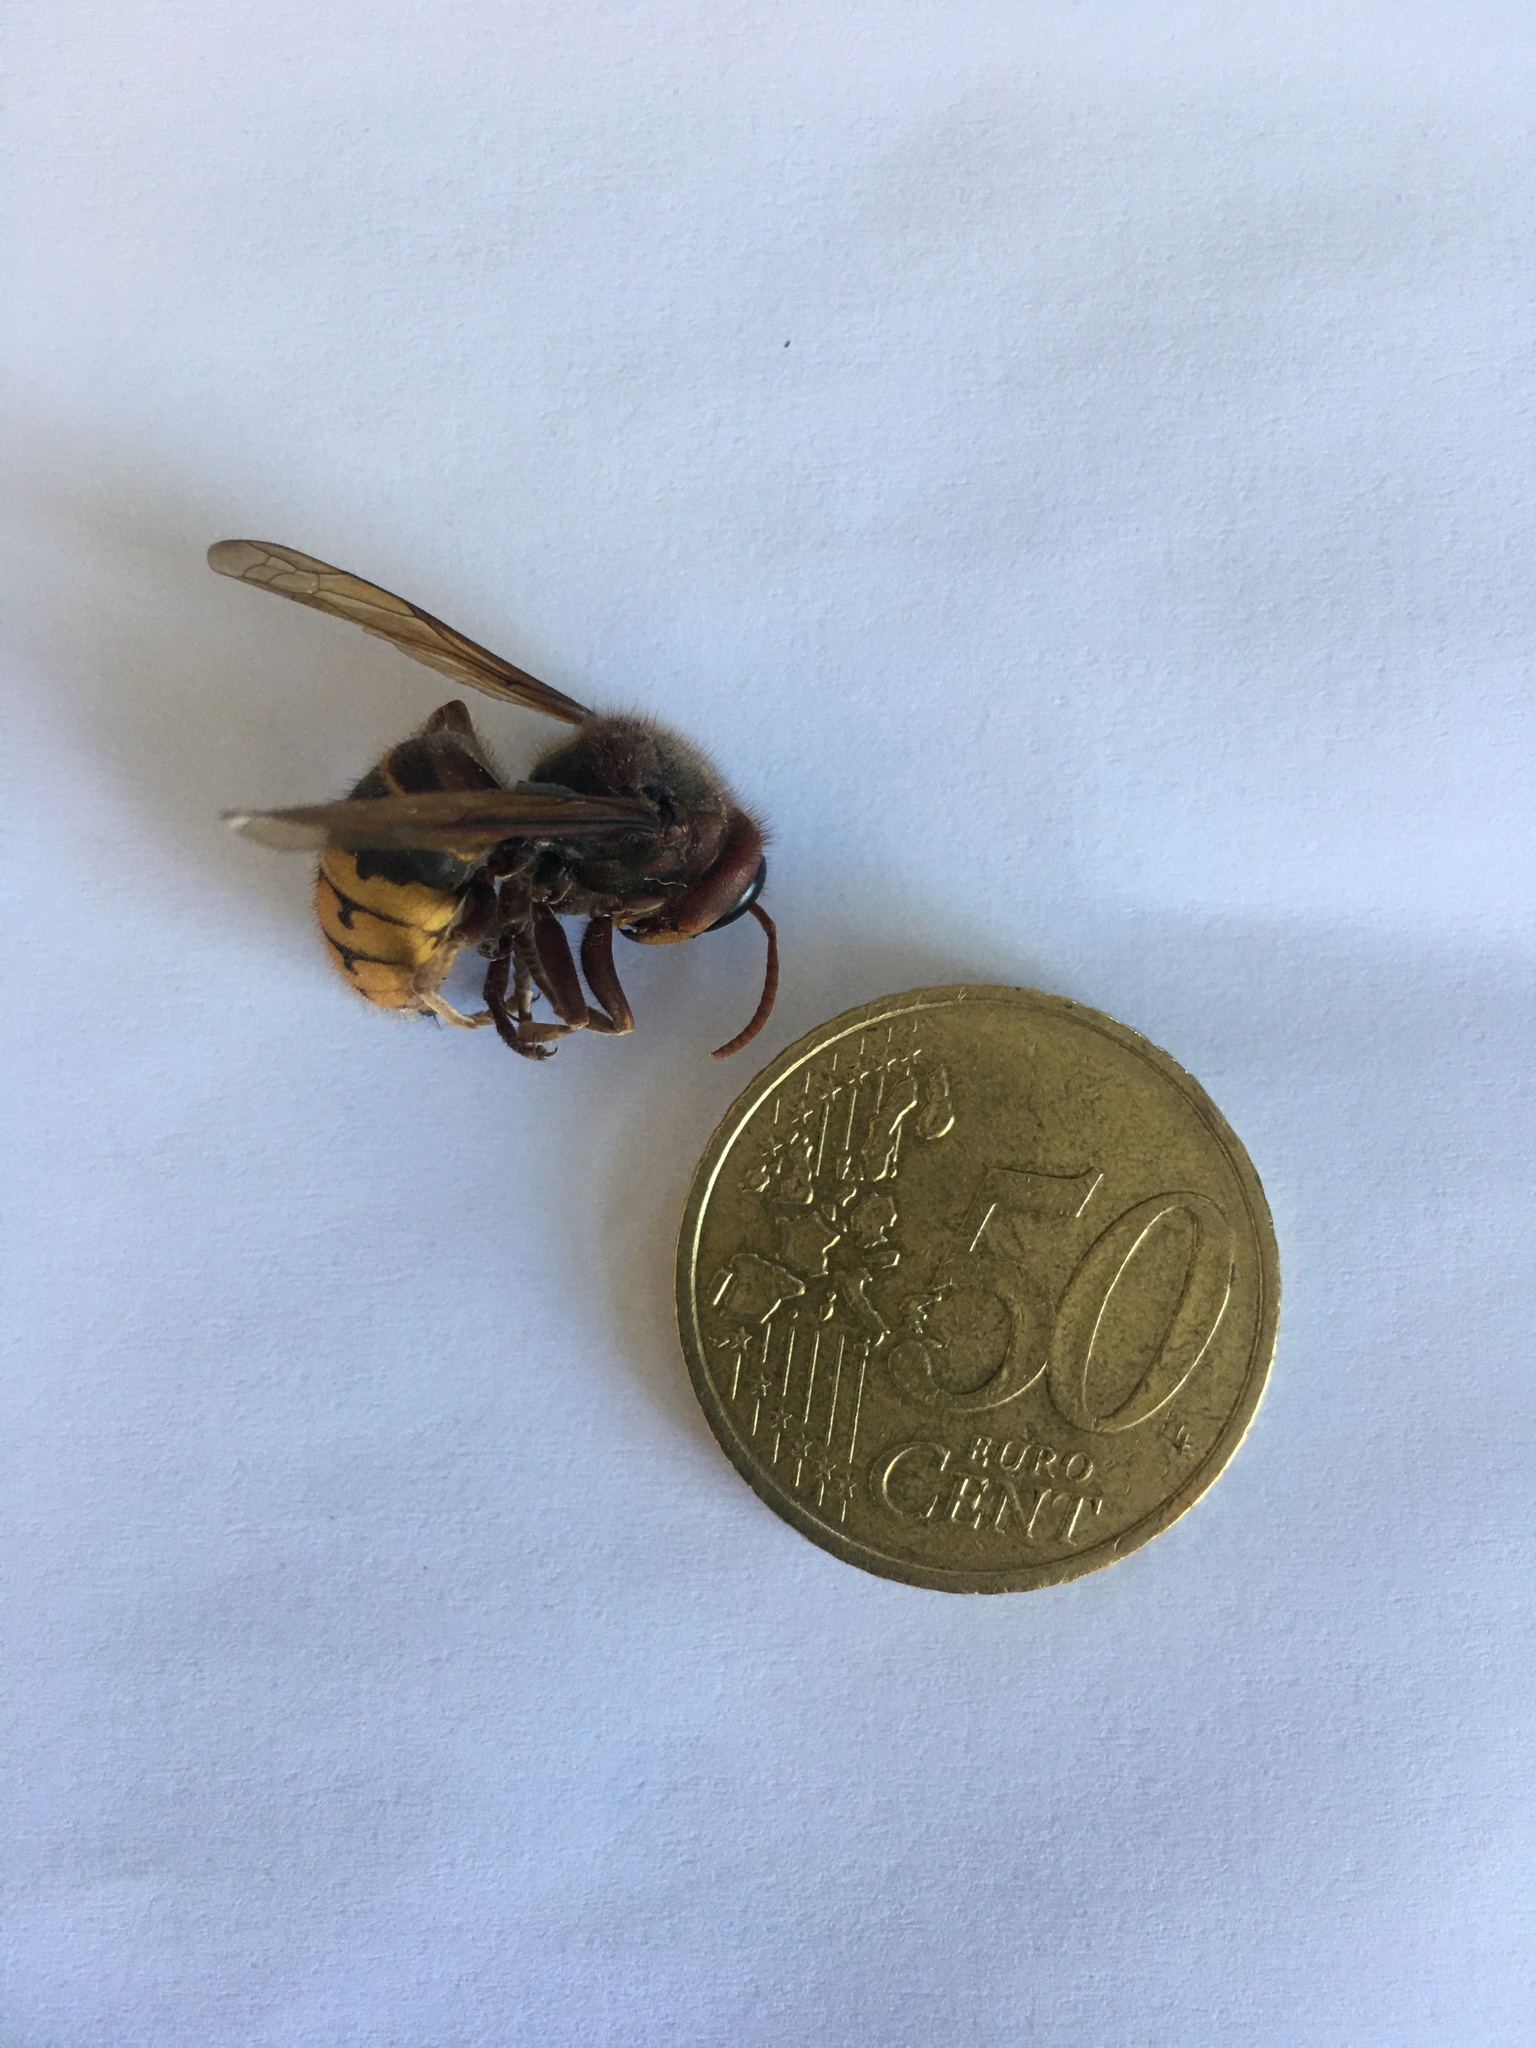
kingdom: Animalia
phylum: Arthropoda
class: Insecta
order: Hymenoptera
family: Vespidae
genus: Vespa
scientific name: Vespa crabro
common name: Hornet
